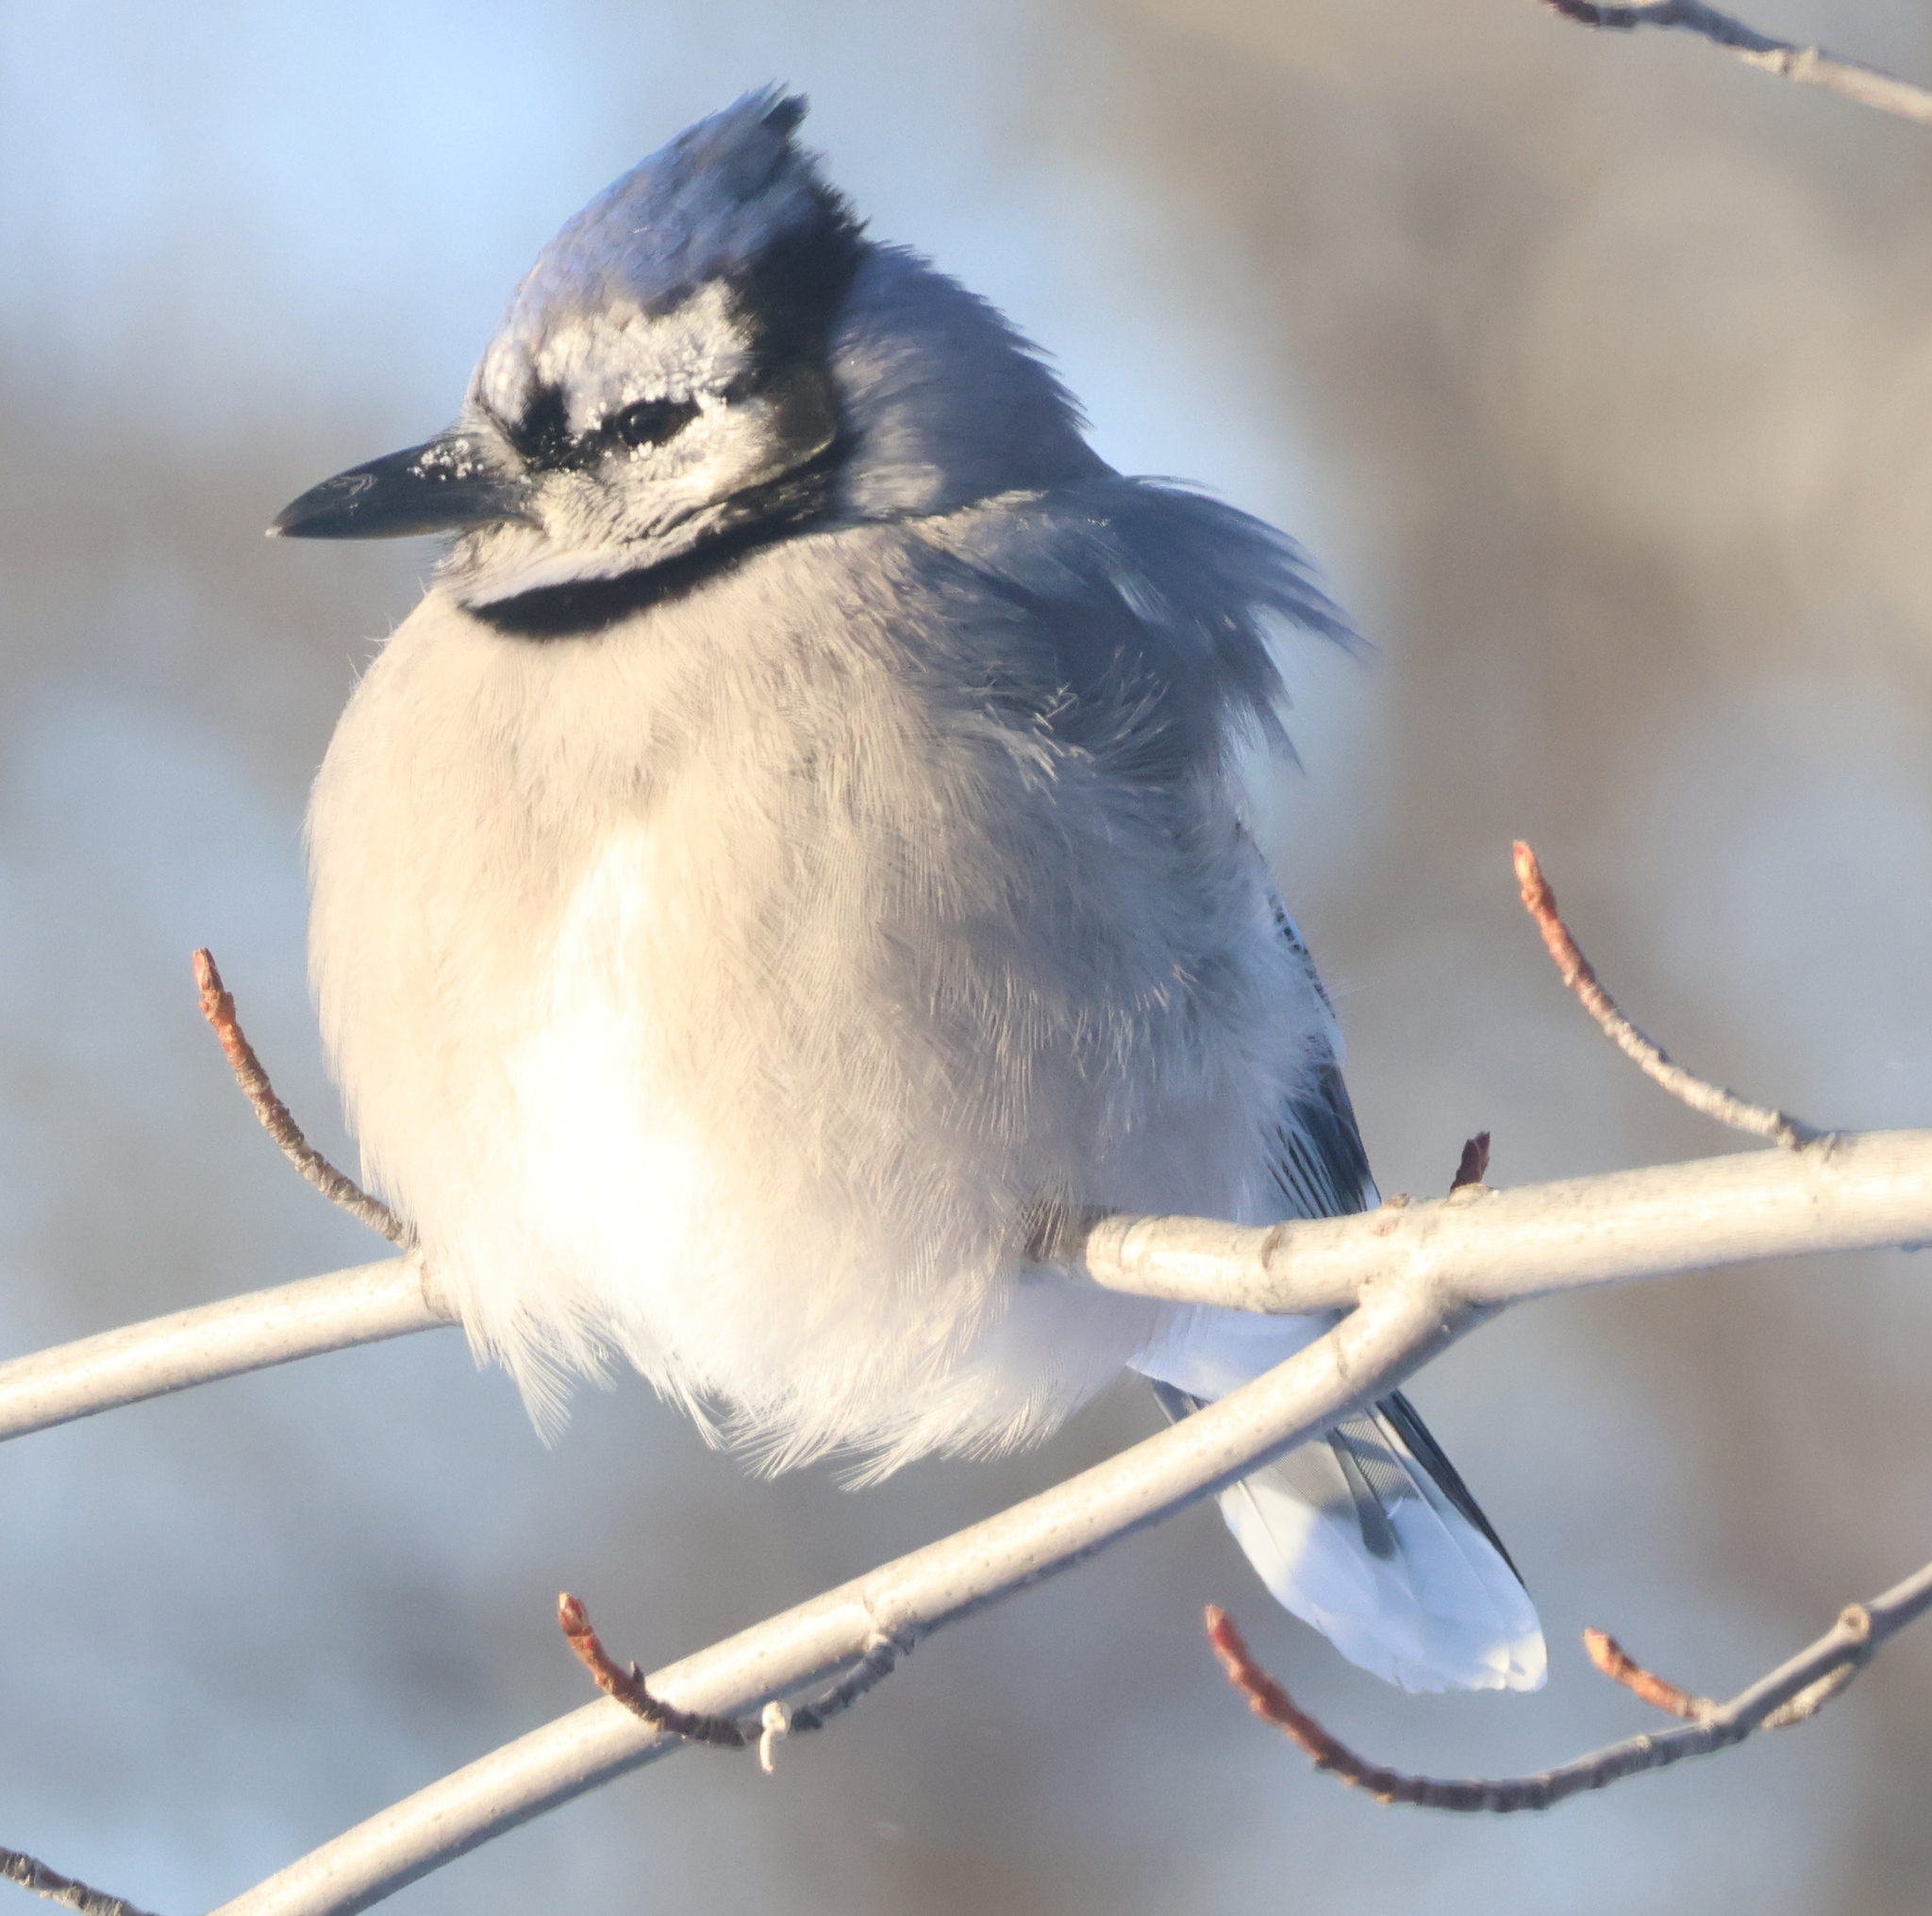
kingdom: Animalia
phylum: Chordata
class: Aves
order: Passeriformes
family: Corvidae
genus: Cyanocitta
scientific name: Cyanocitta cristata
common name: Blue jay
